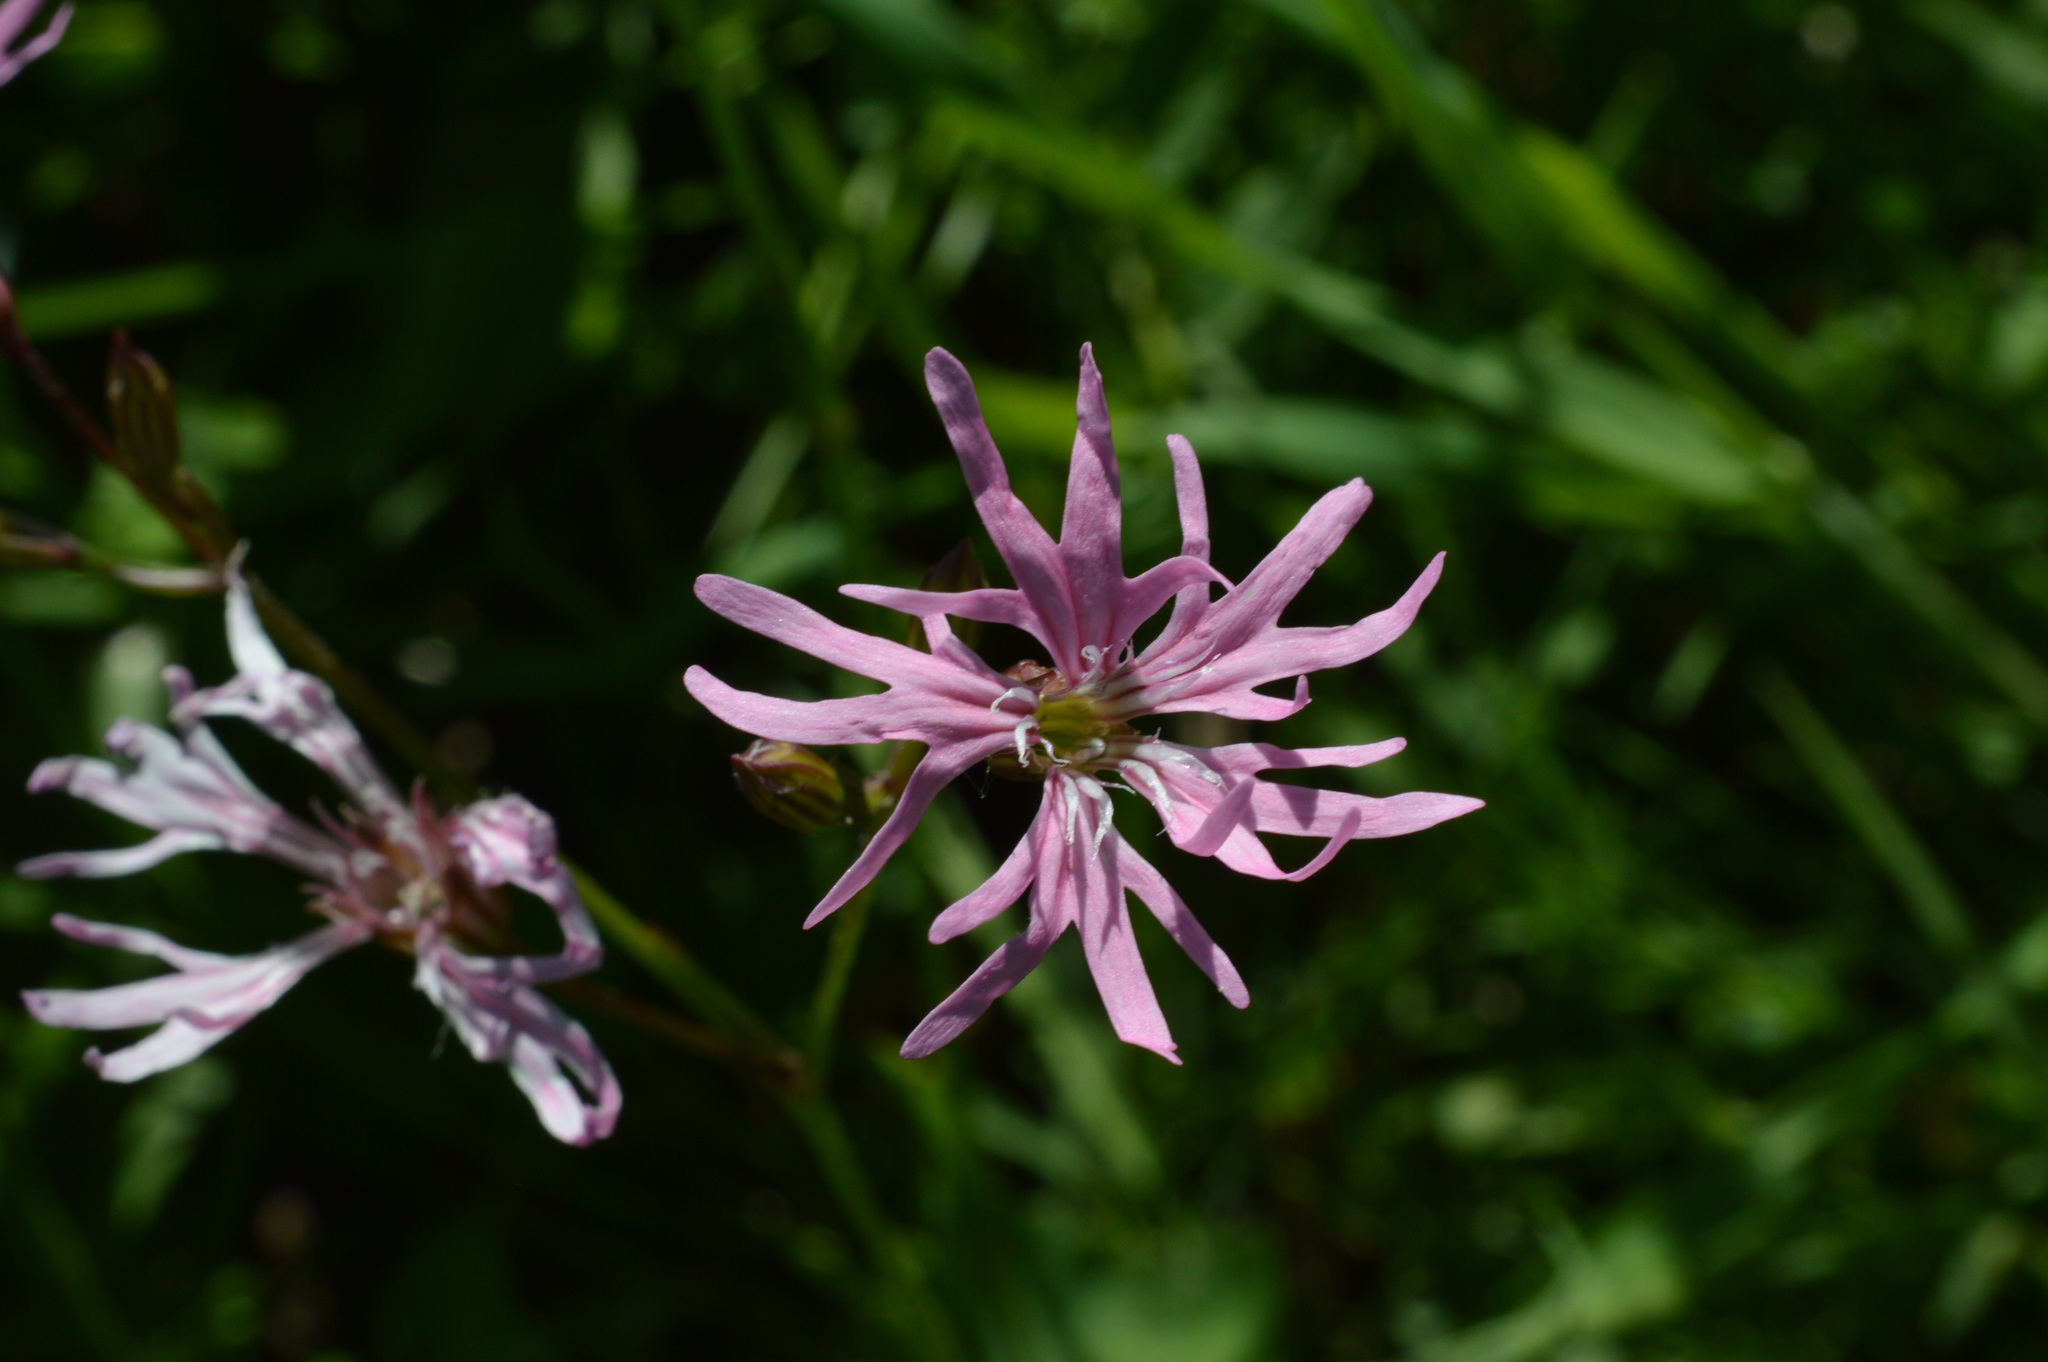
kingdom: Plantae
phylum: Tracheophyta
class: Magnoliopsida
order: Caryophyllales
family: Caryophyllaceae
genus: Silene
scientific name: Silene flos-cuculi
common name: Ragged-robin
